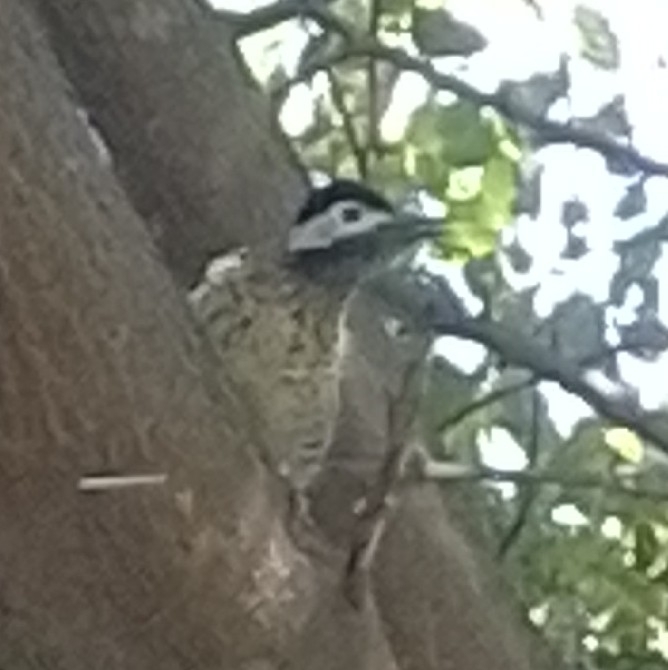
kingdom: Animalia
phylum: Chordata
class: Aves
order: Piciformes
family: Picidae
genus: Colaptes
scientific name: Colaptes melanochloros
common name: Green-barred woodpecker
